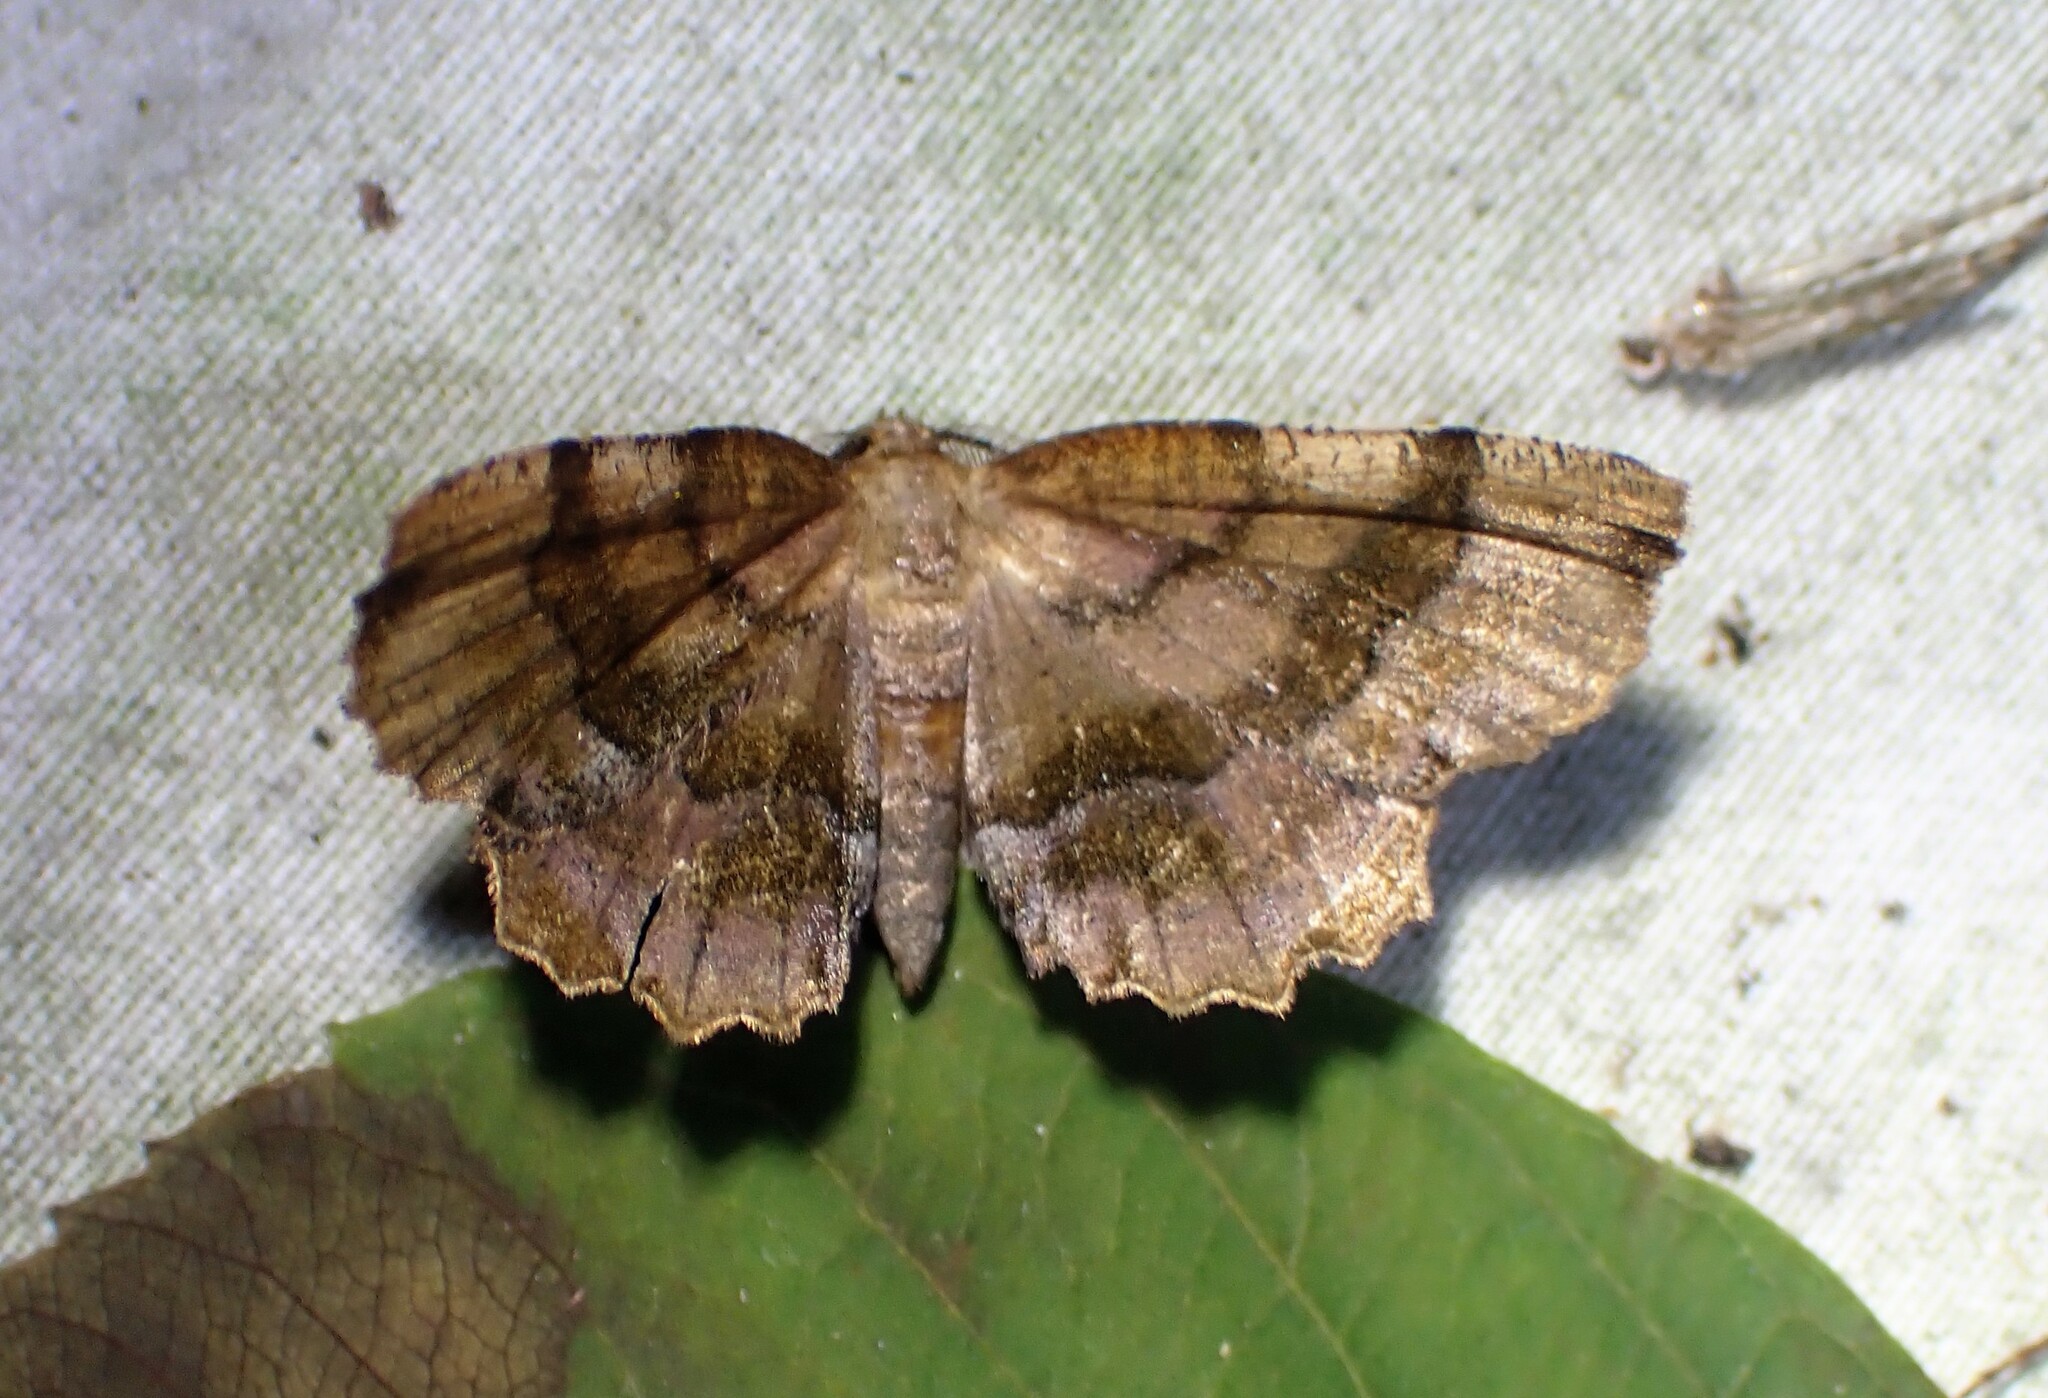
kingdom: Animalia
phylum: Arthropoda
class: Insecta
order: Lepidoptera
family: Geometridae
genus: Cepphis
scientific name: Cepphis armataria
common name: Scallop moth
